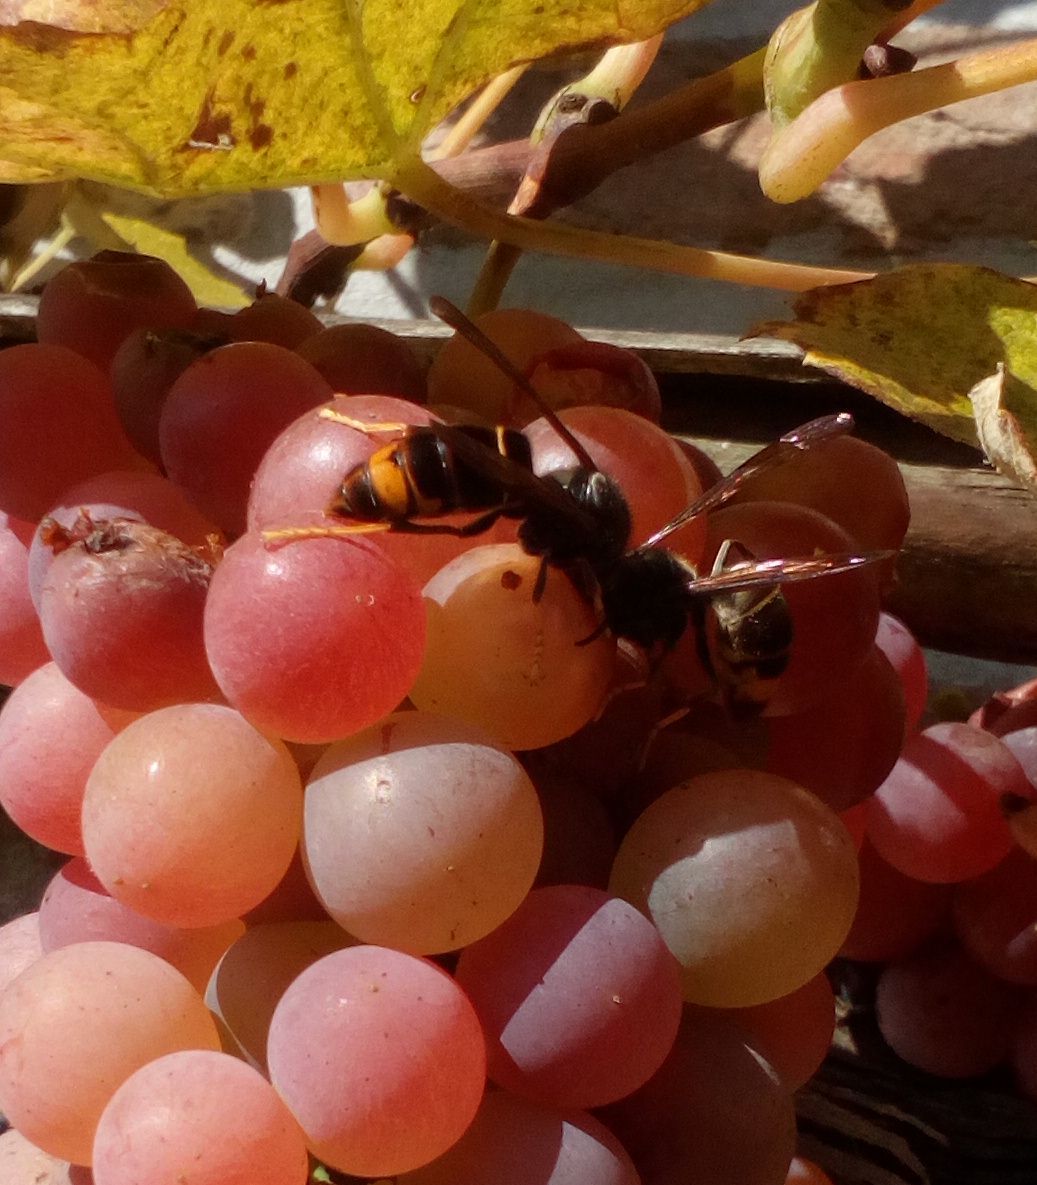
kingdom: Animalia
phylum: Arthropoda
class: Insecta
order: Hymenoptera
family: Vespidae
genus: Vespa
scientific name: Vespa velutina
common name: Asian hornet
